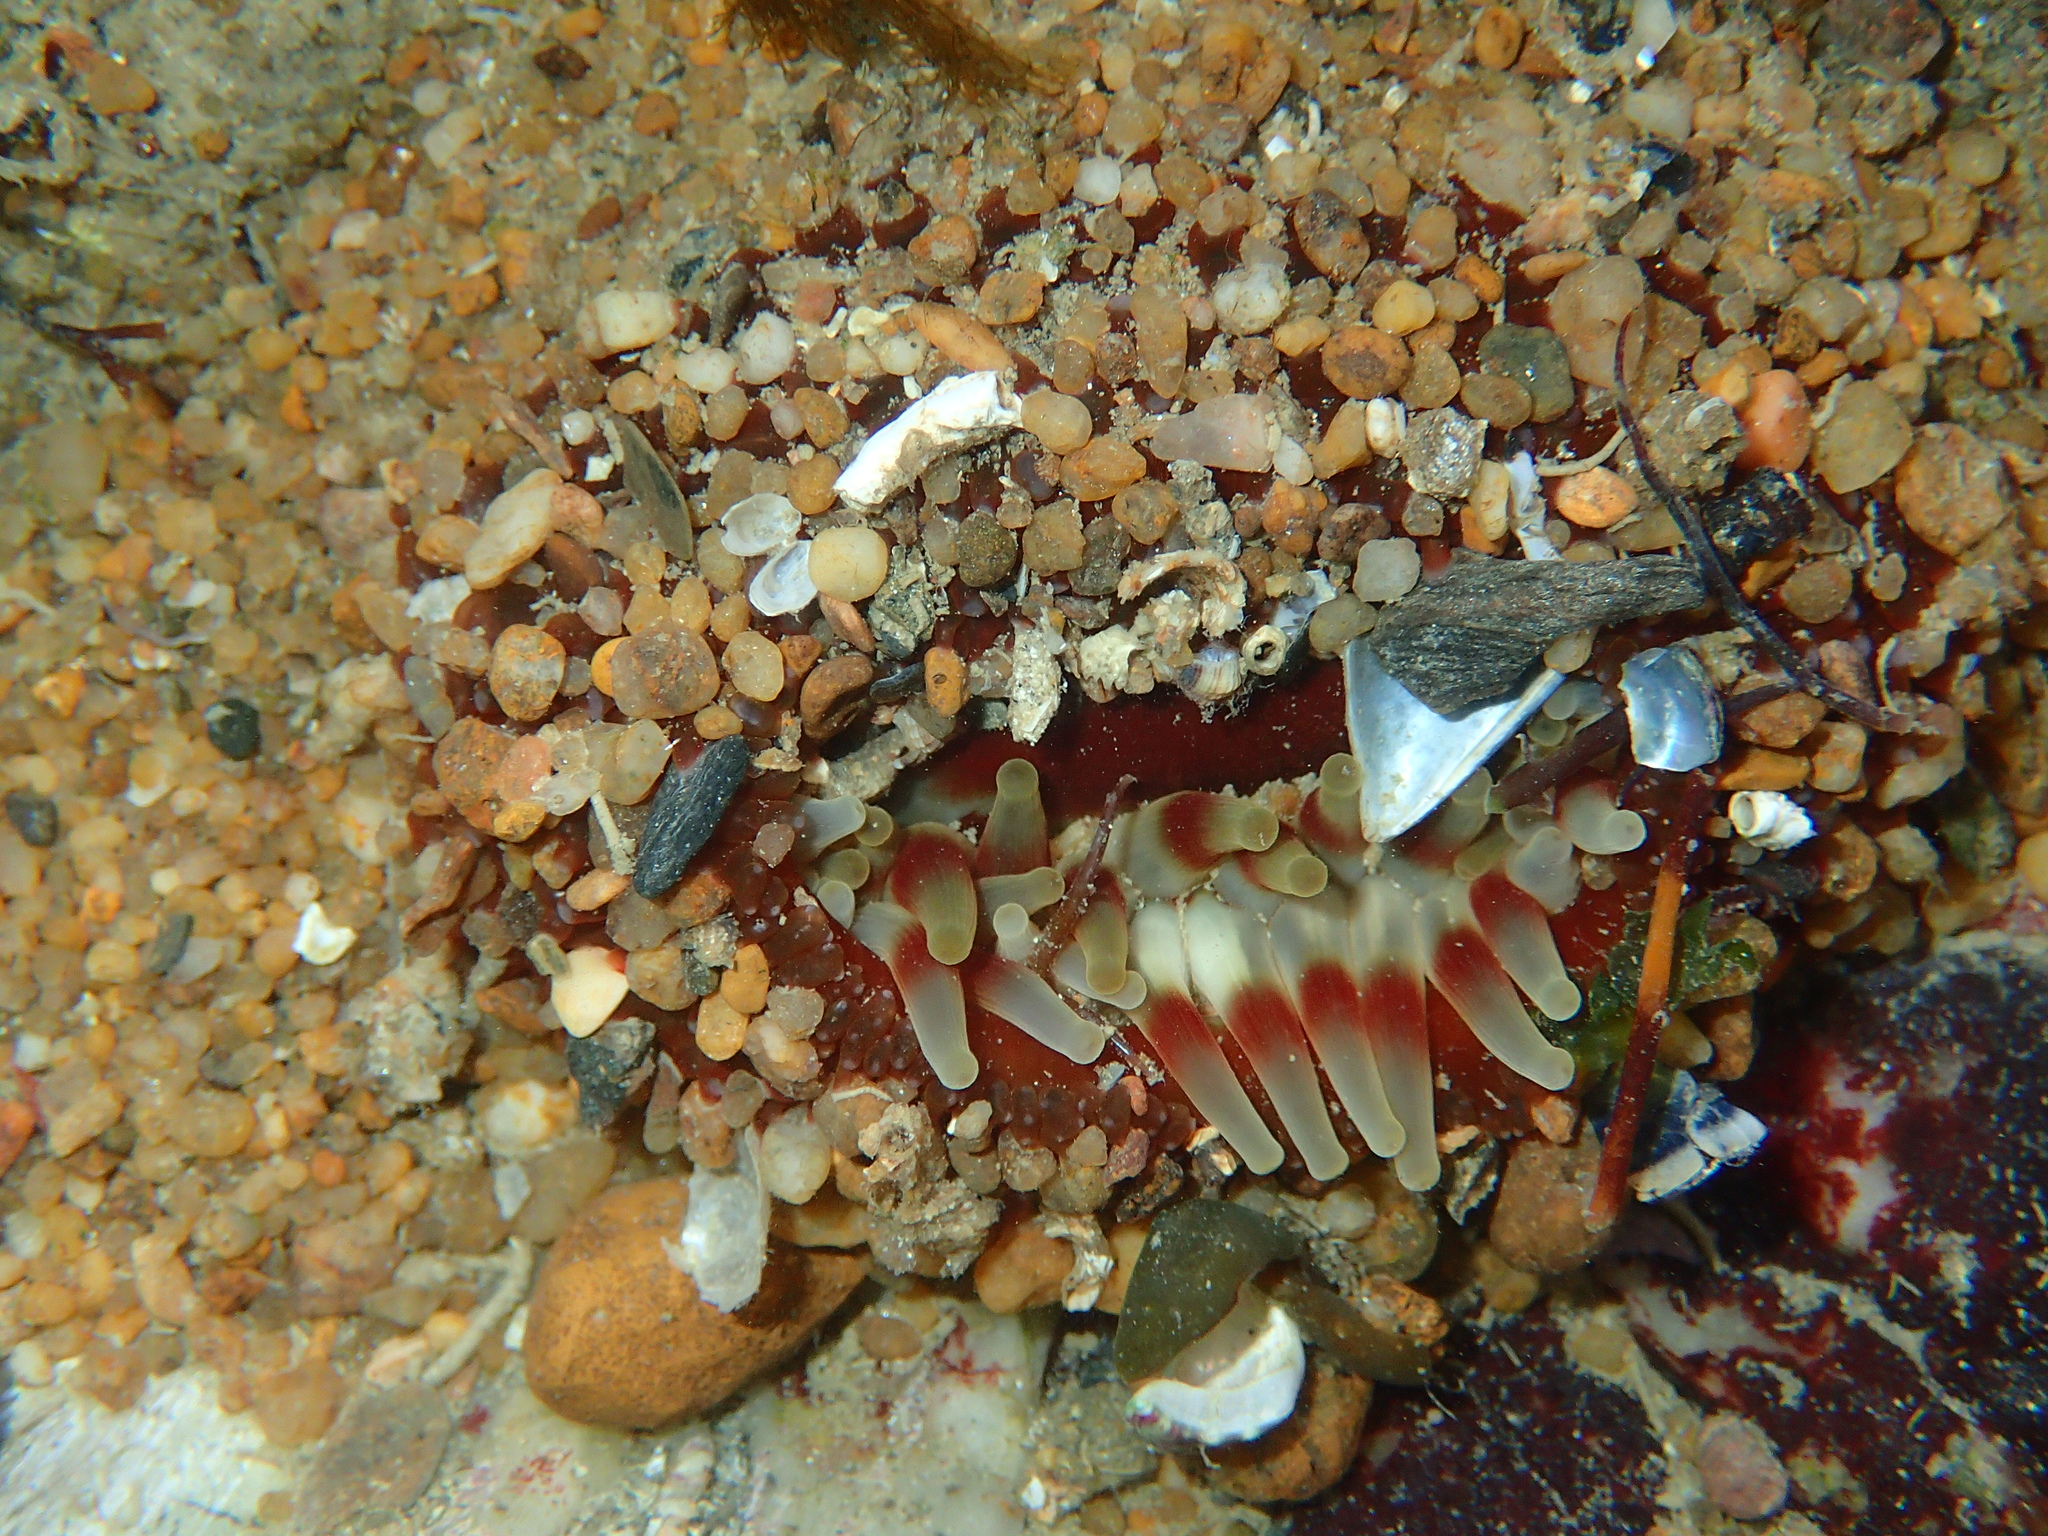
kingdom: Animalia
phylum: Cnidaria
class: Anthozoa
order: Actiniaria
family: Actiniidae
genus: Urticina
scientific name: Urticina felina
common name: Dahlia anemone
